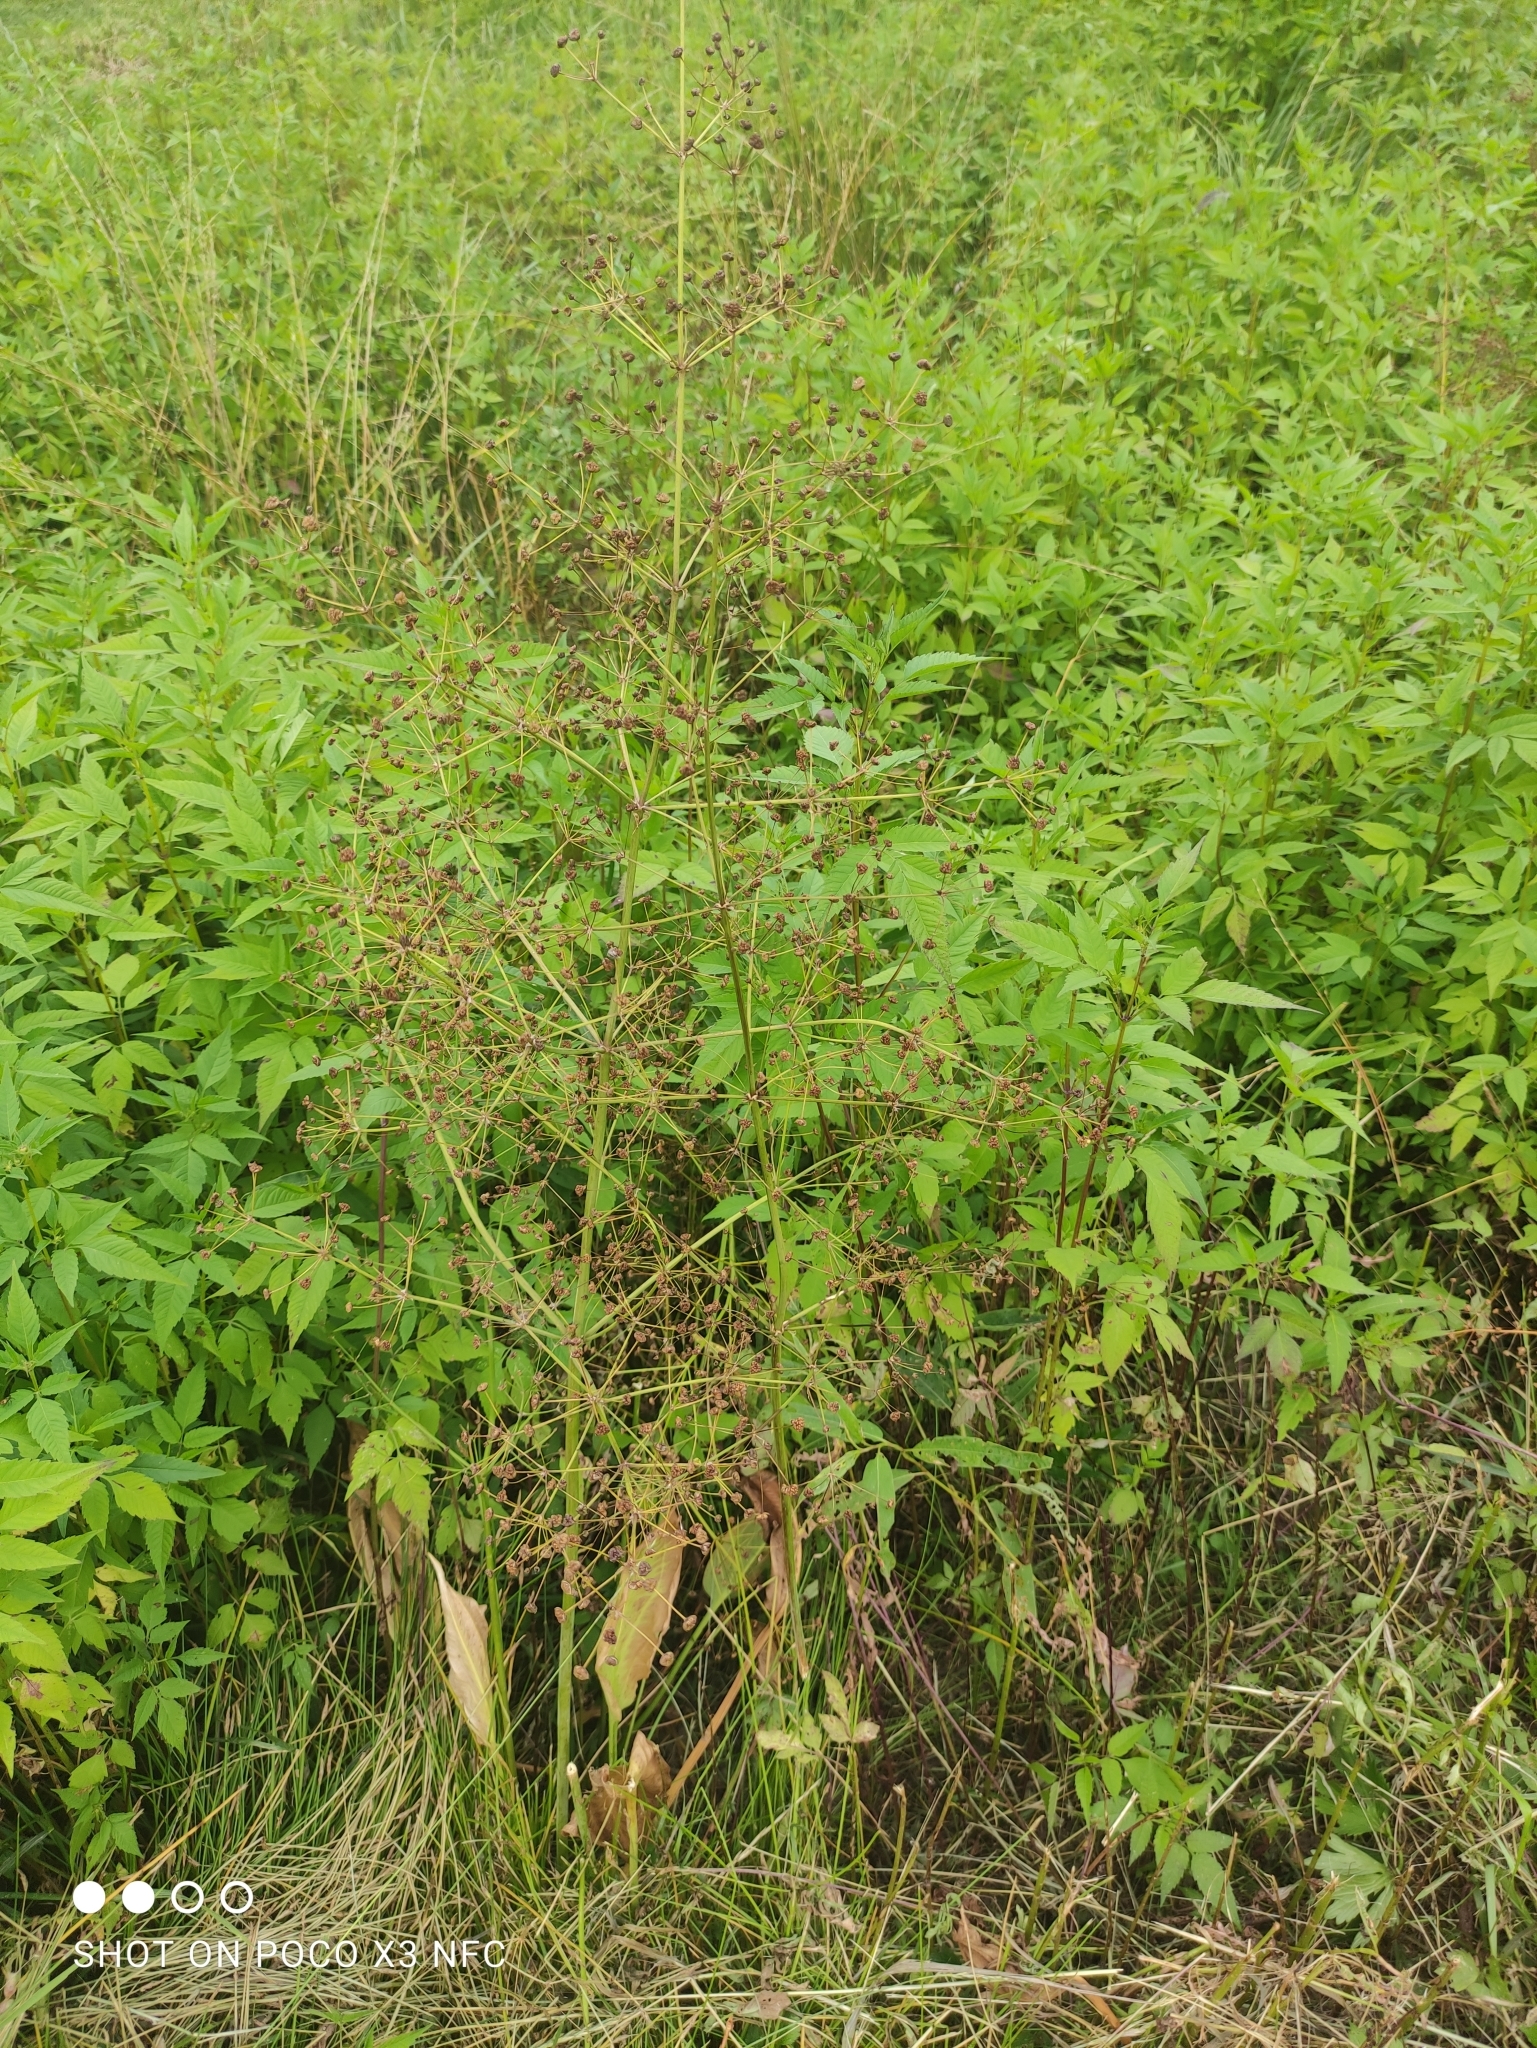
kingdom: Plantae
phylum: Tracheophyta
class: Liliopsida
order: Alismatales
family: Alismataceae
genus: Alisma
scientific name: Alisma plantago-aquatica
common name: Water-plantain
